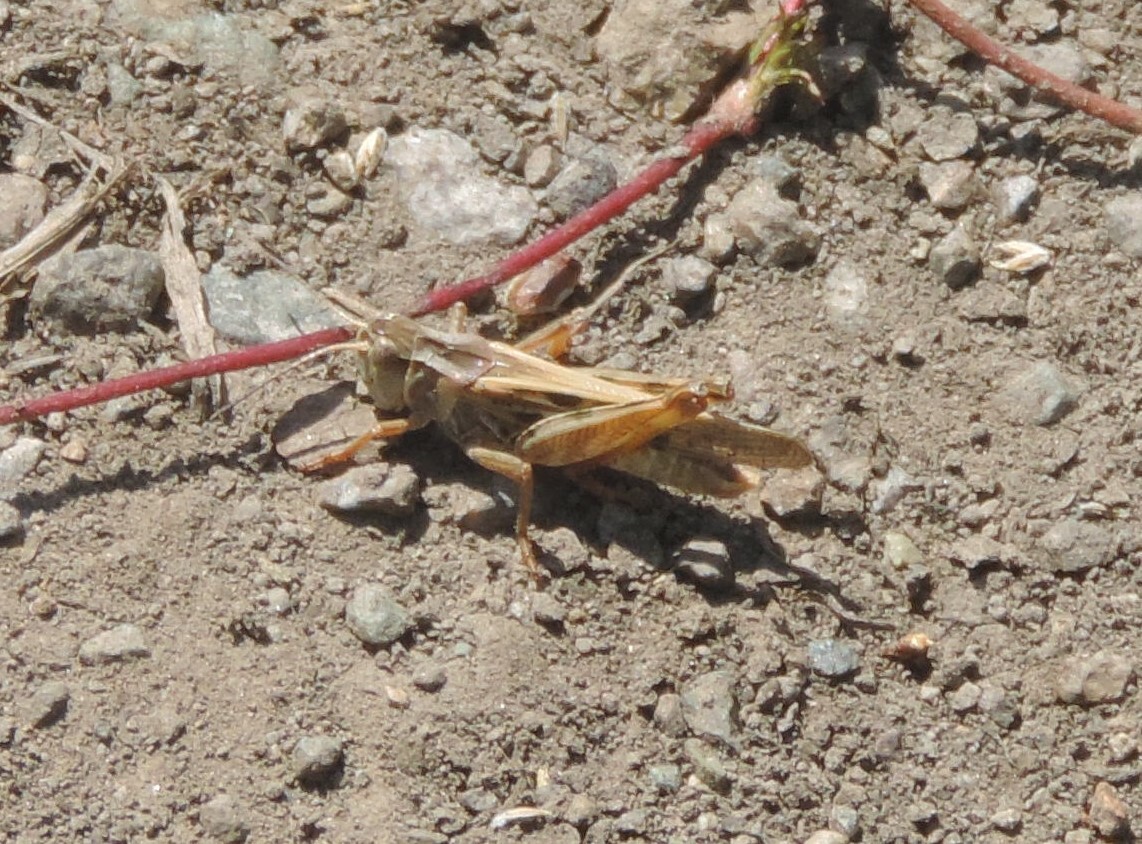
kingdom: Animalia
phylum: Arthropoda
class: Insecta
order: Orthoptera
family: Acrididae
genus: Camnula
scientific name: Camnula pellucida
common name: Clear-winged grasshopper
